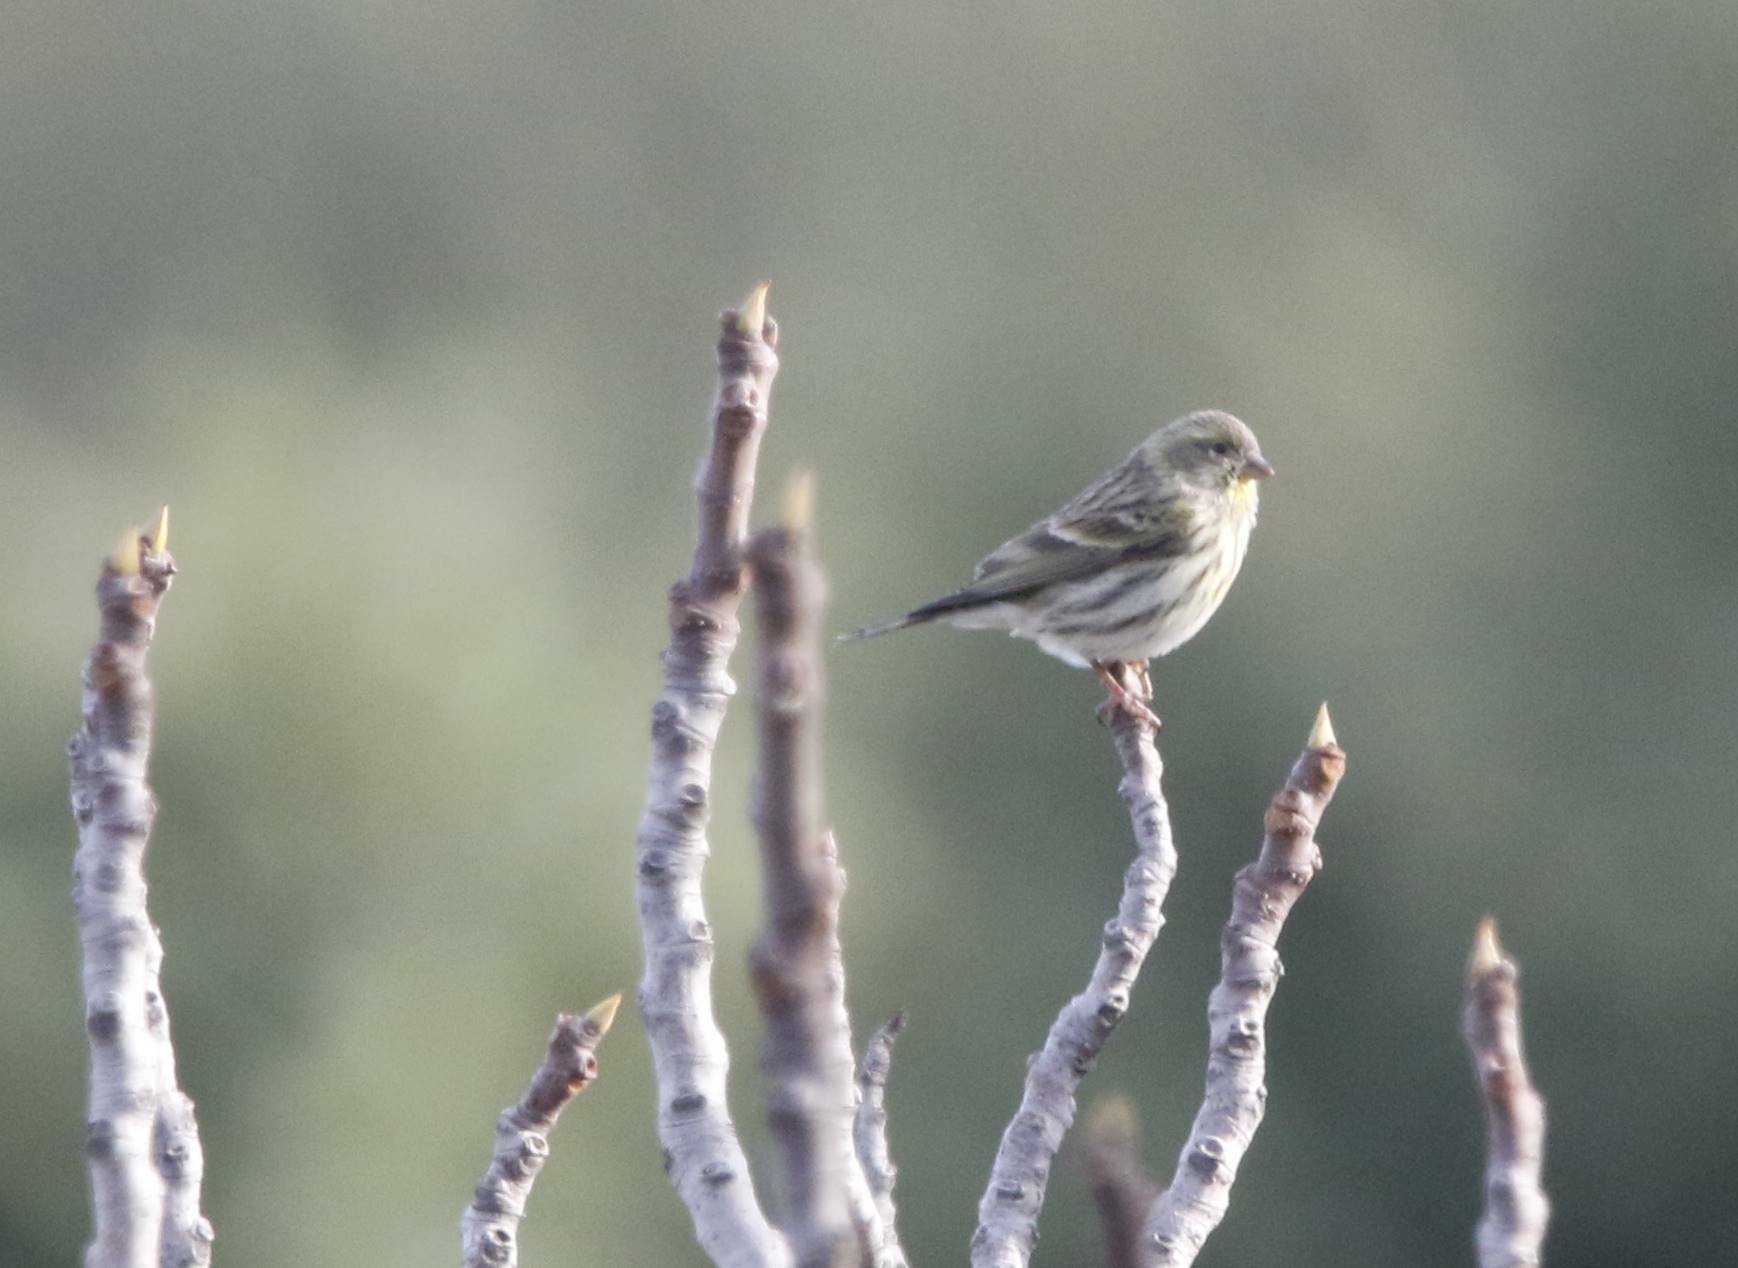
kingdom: Animalia
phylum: Chordata
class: Aves
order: Passeriformes
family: Fringillidae
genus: Serinus
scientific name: Serinus serinus
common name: European serin
